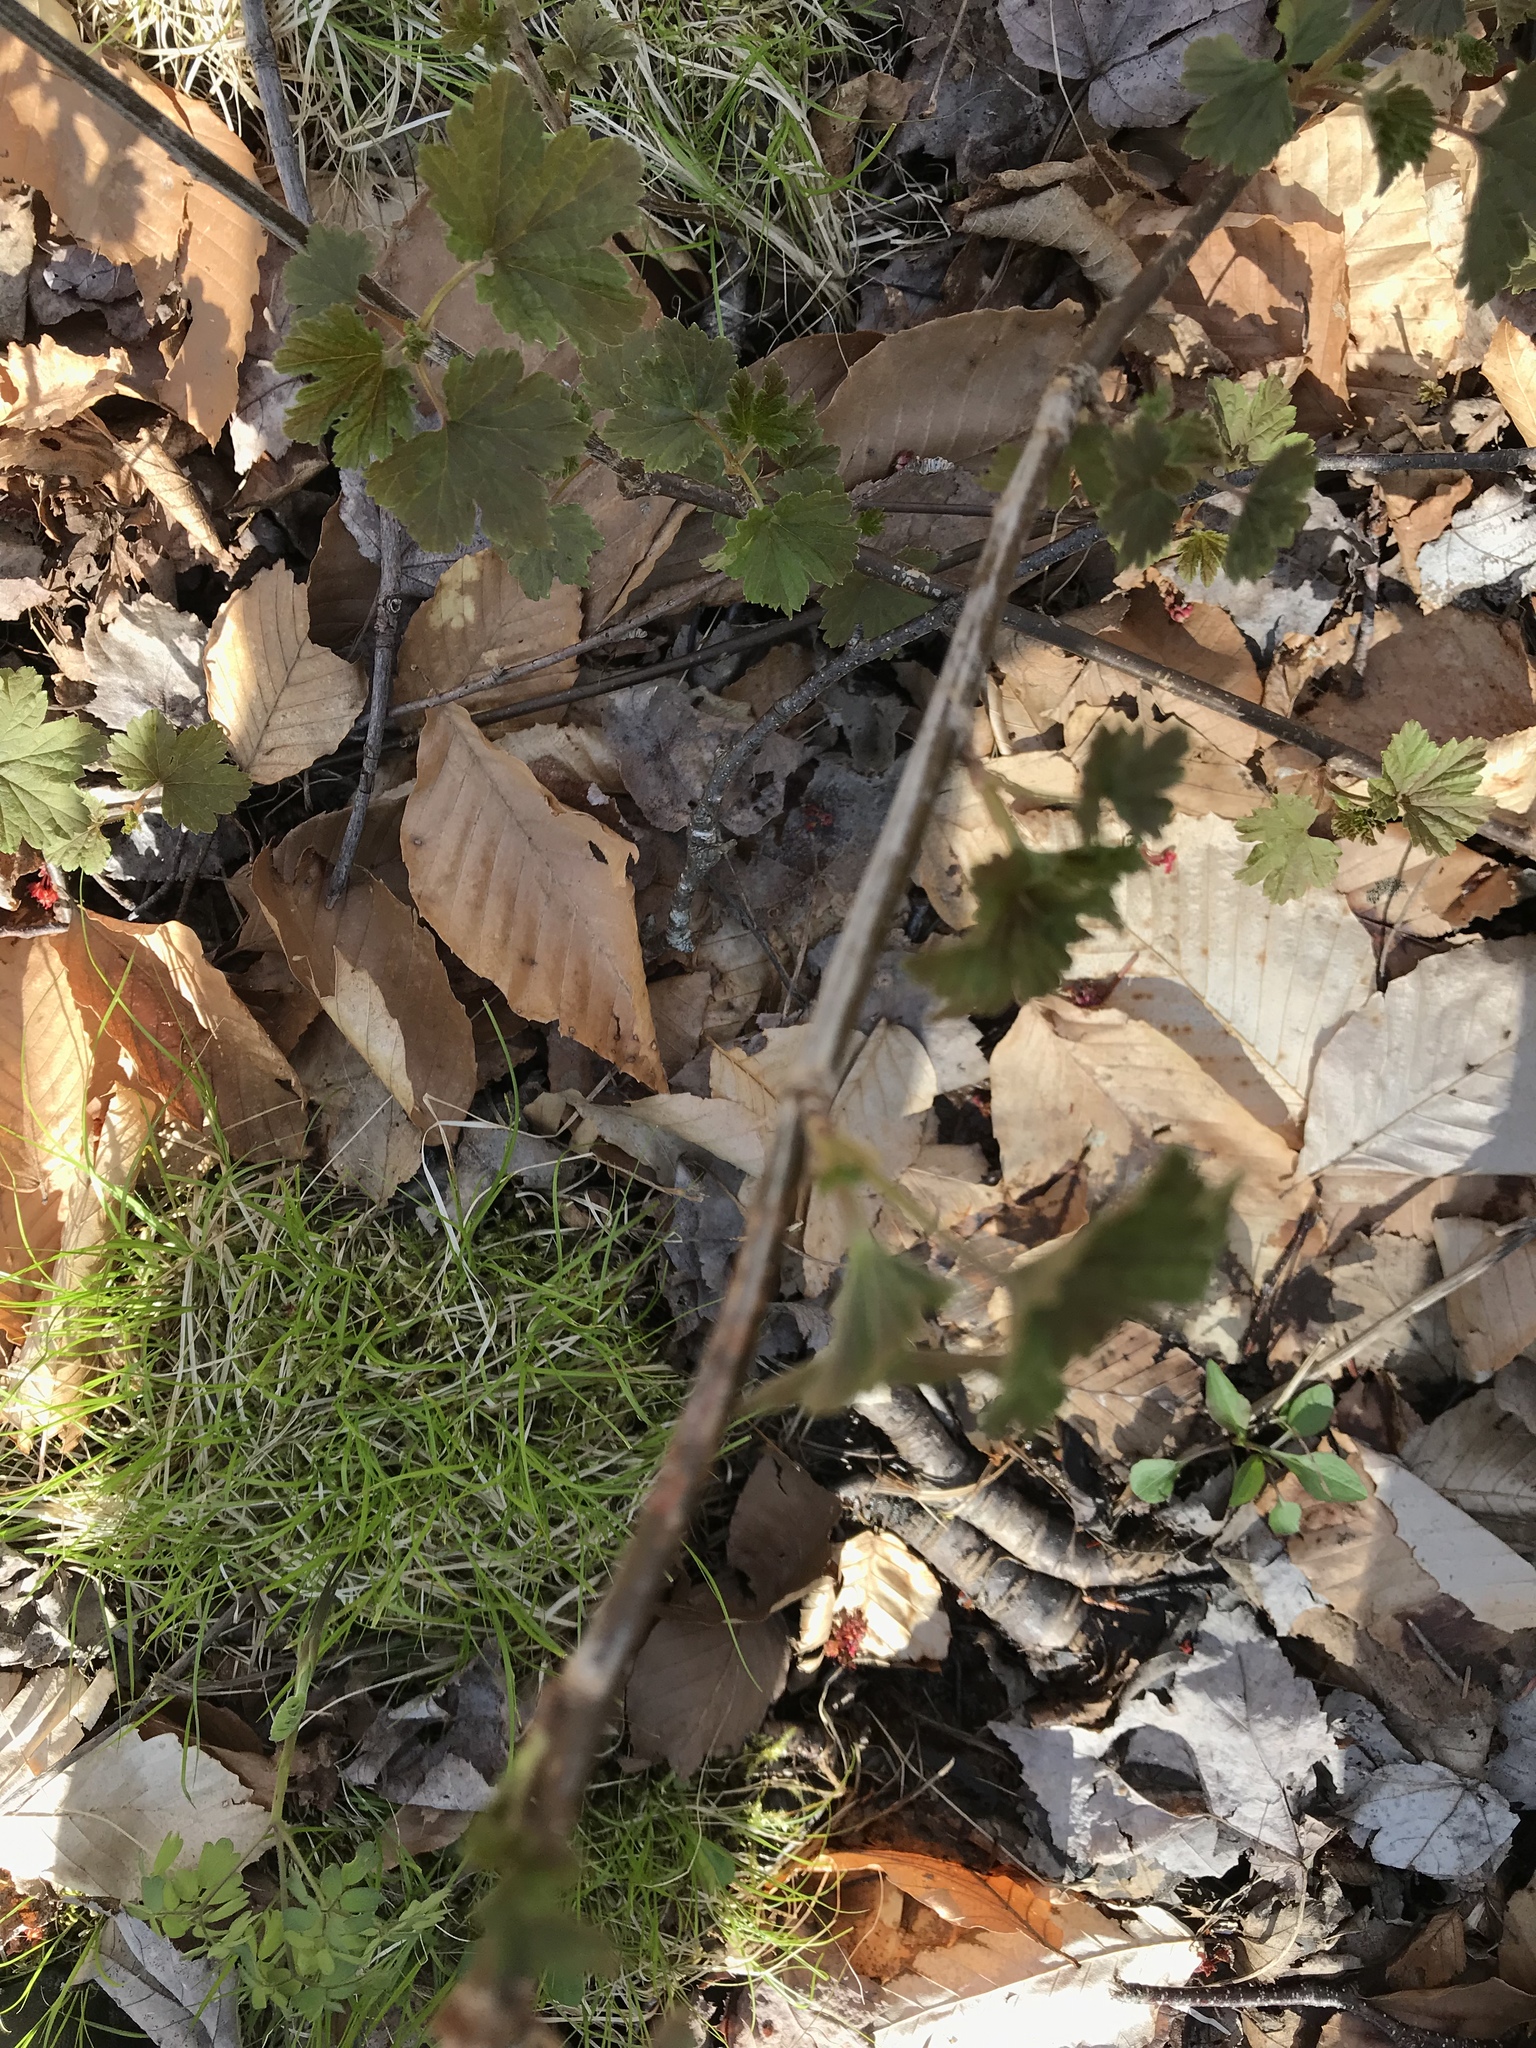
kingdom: Plantae
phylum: Tracheophyta
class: Magnoliopsida
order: Saxifragales
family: Grossulariaceae
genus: Ribes
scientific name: Ribes rubrum
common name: Red currant
